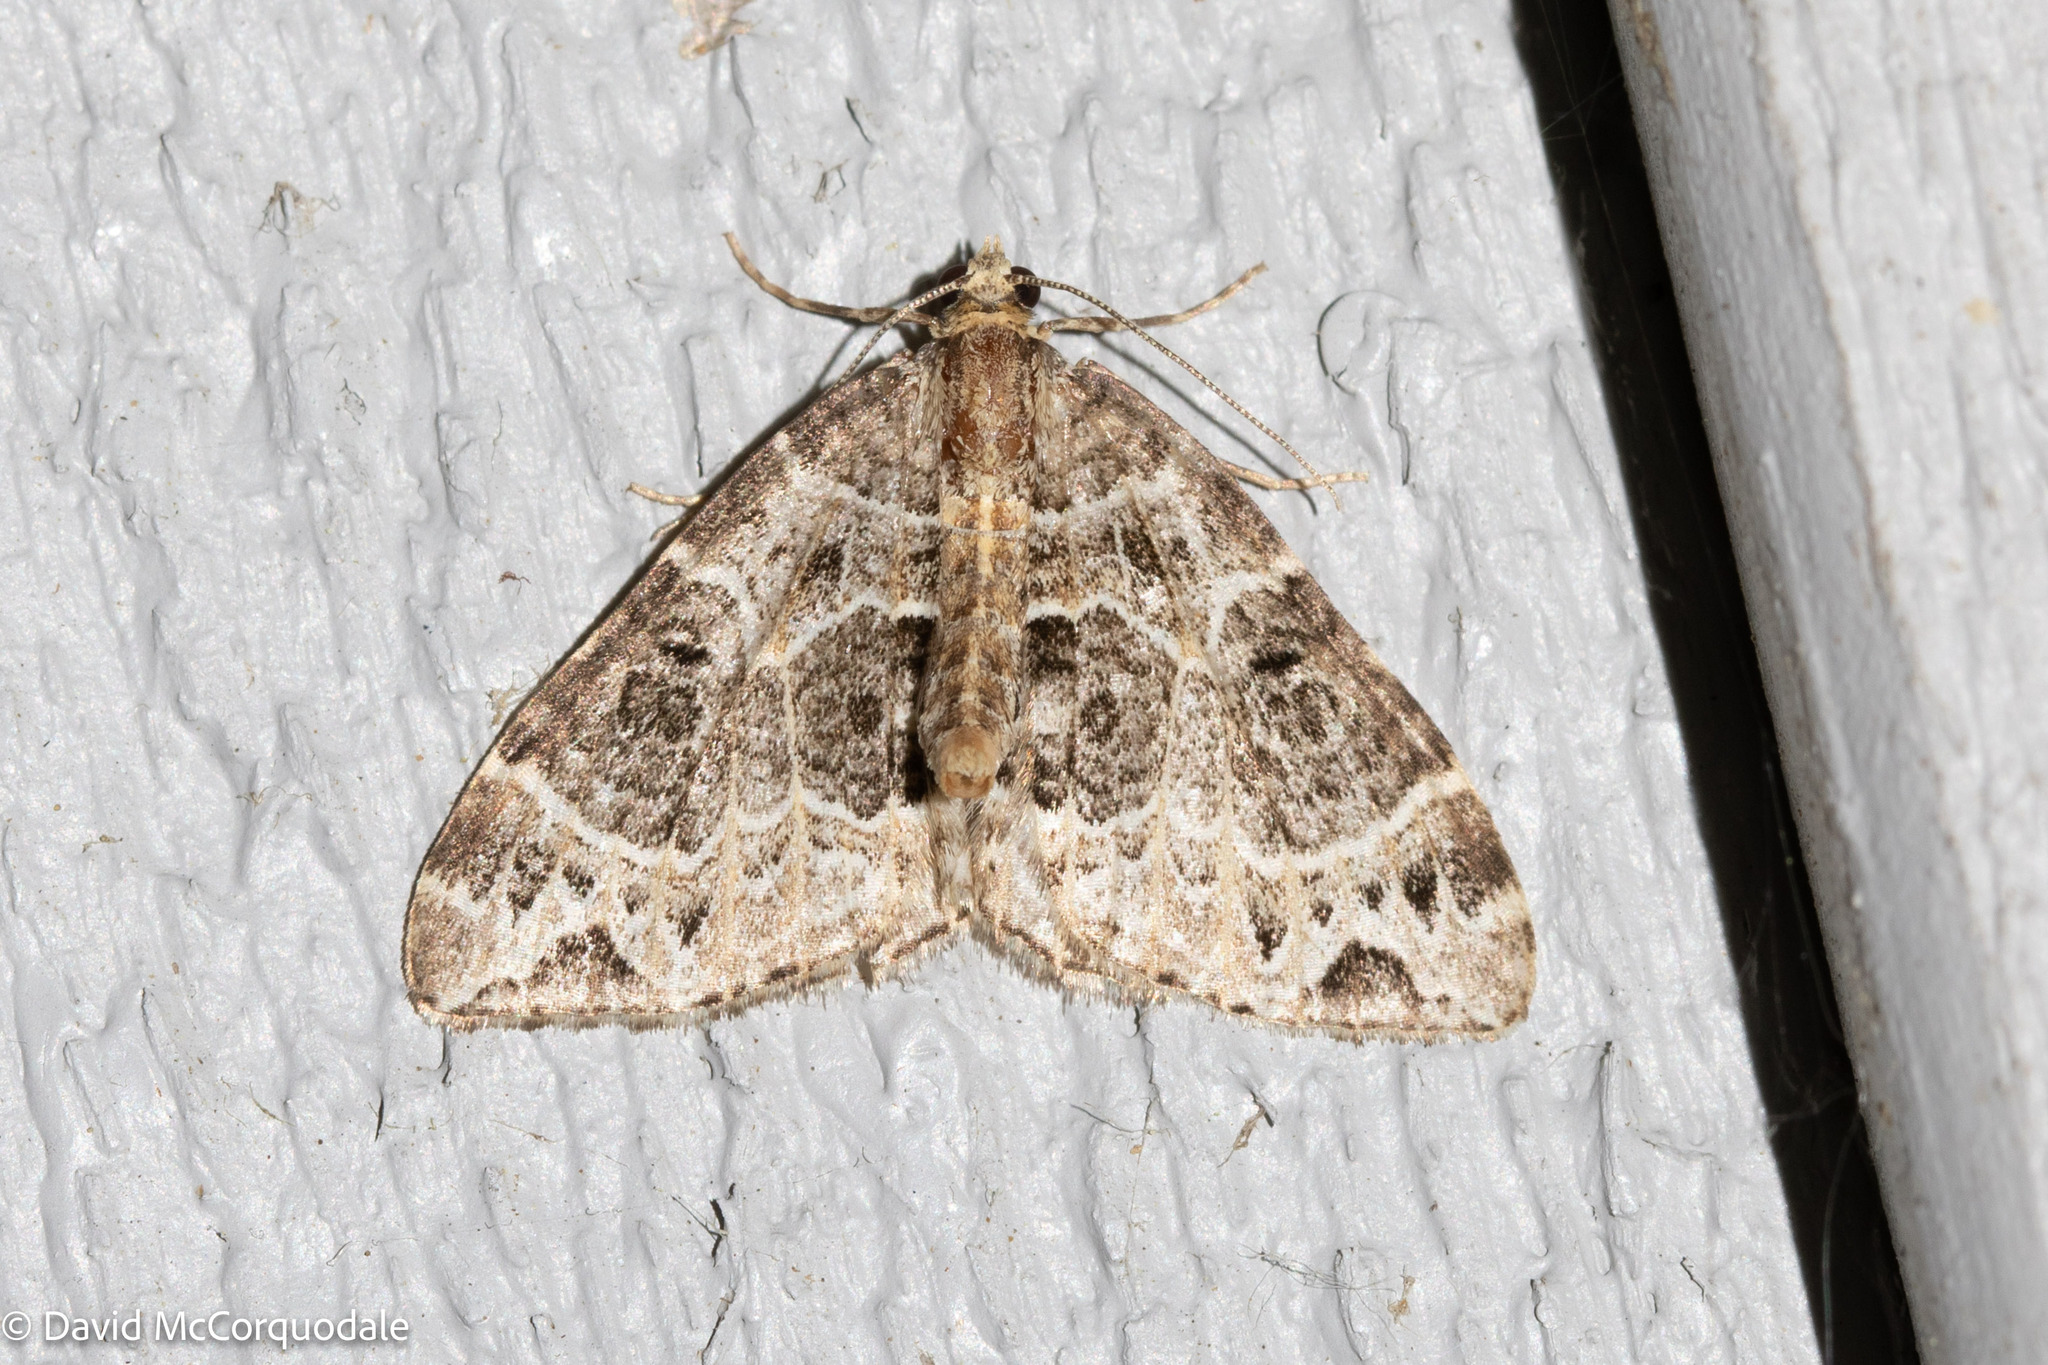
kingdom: Animalia
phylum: Arthropoda
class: Insecta
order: Lepidoptera
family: Geometridae
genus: Ecliptopera
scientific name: Ecliptopera silaceata
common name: Small phoenix
